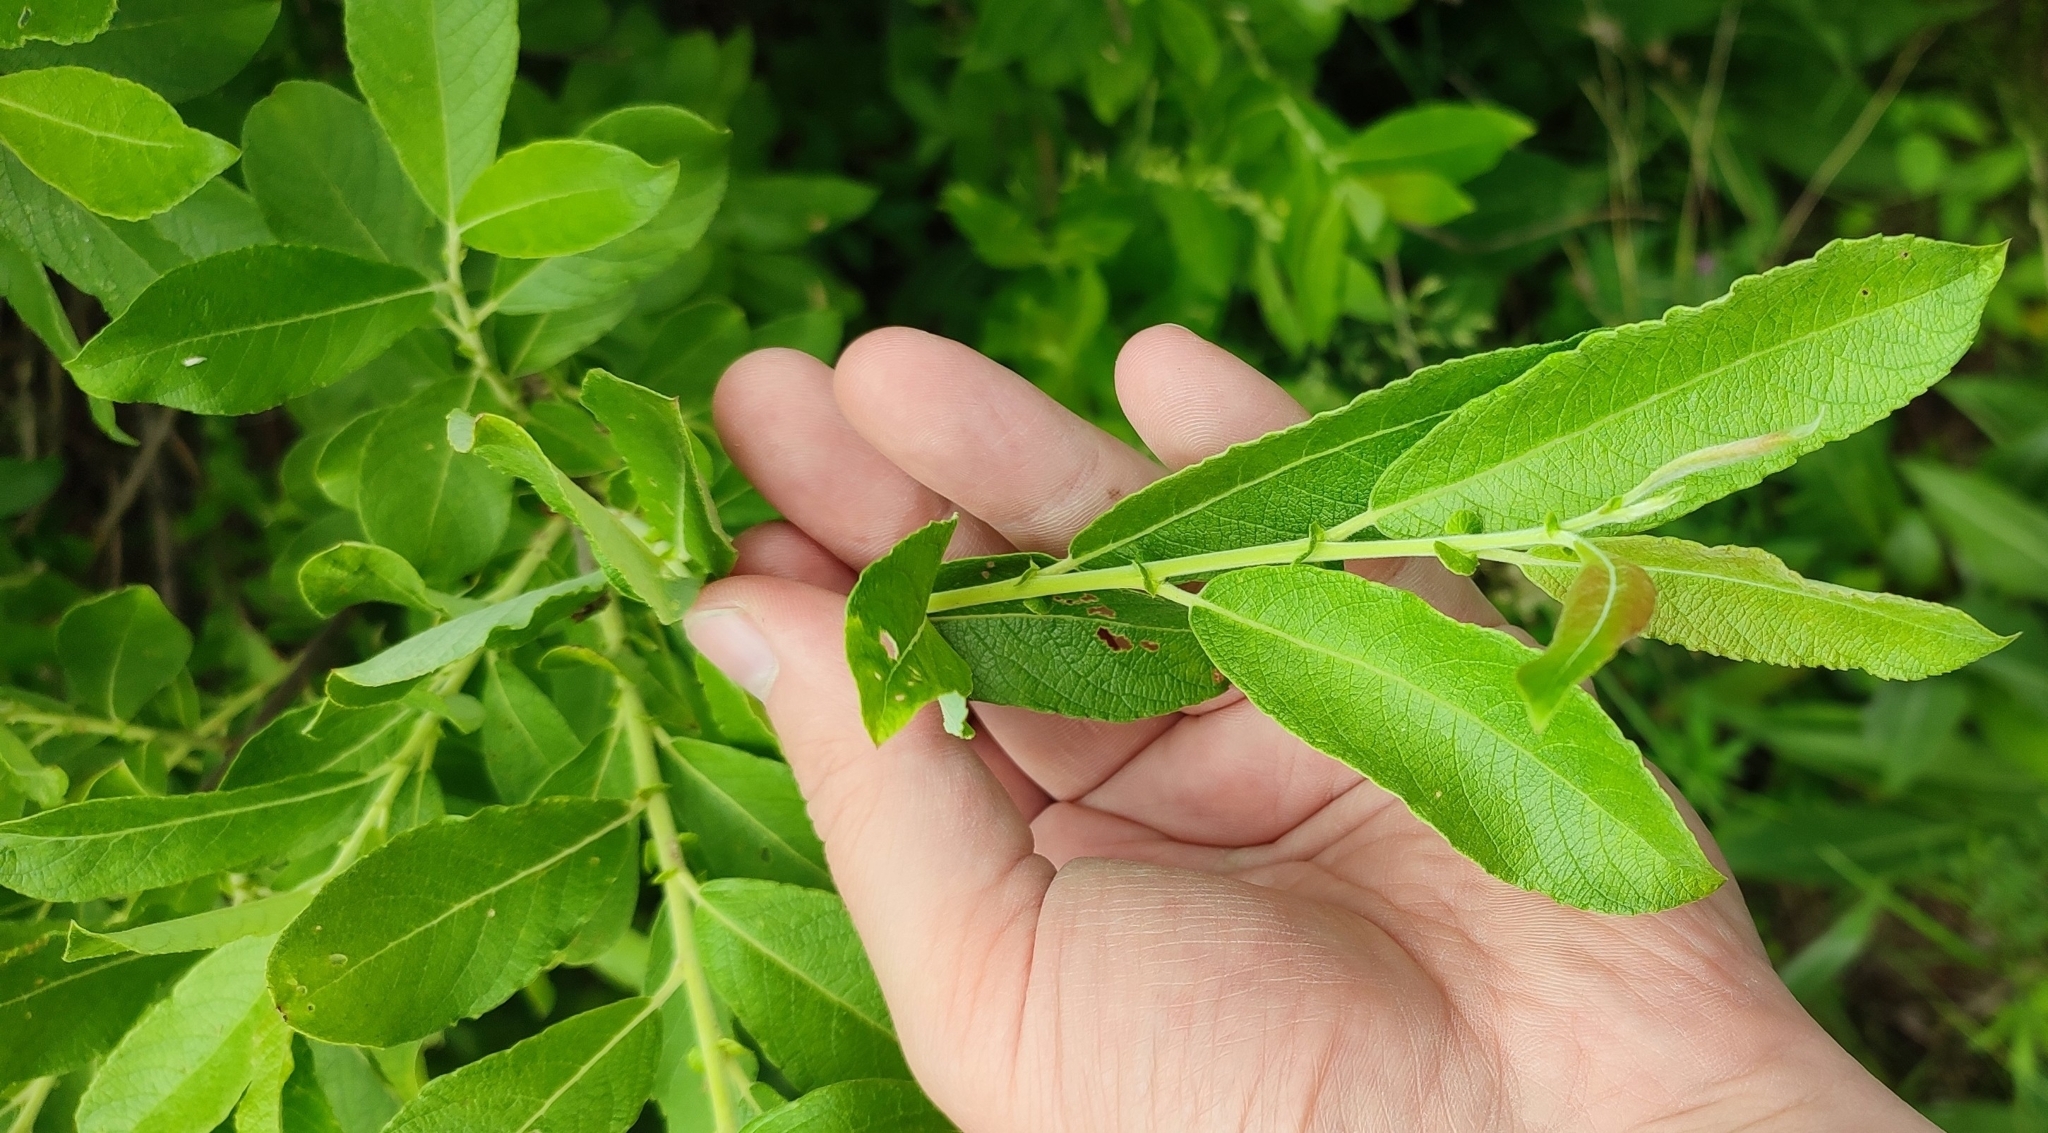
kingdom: Plantae
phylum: Tracheophyta
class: Magnoliopsida
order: Malpighiales
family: Salicaceae
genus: Salix
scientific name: Salix cinerea
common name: Common sallow
